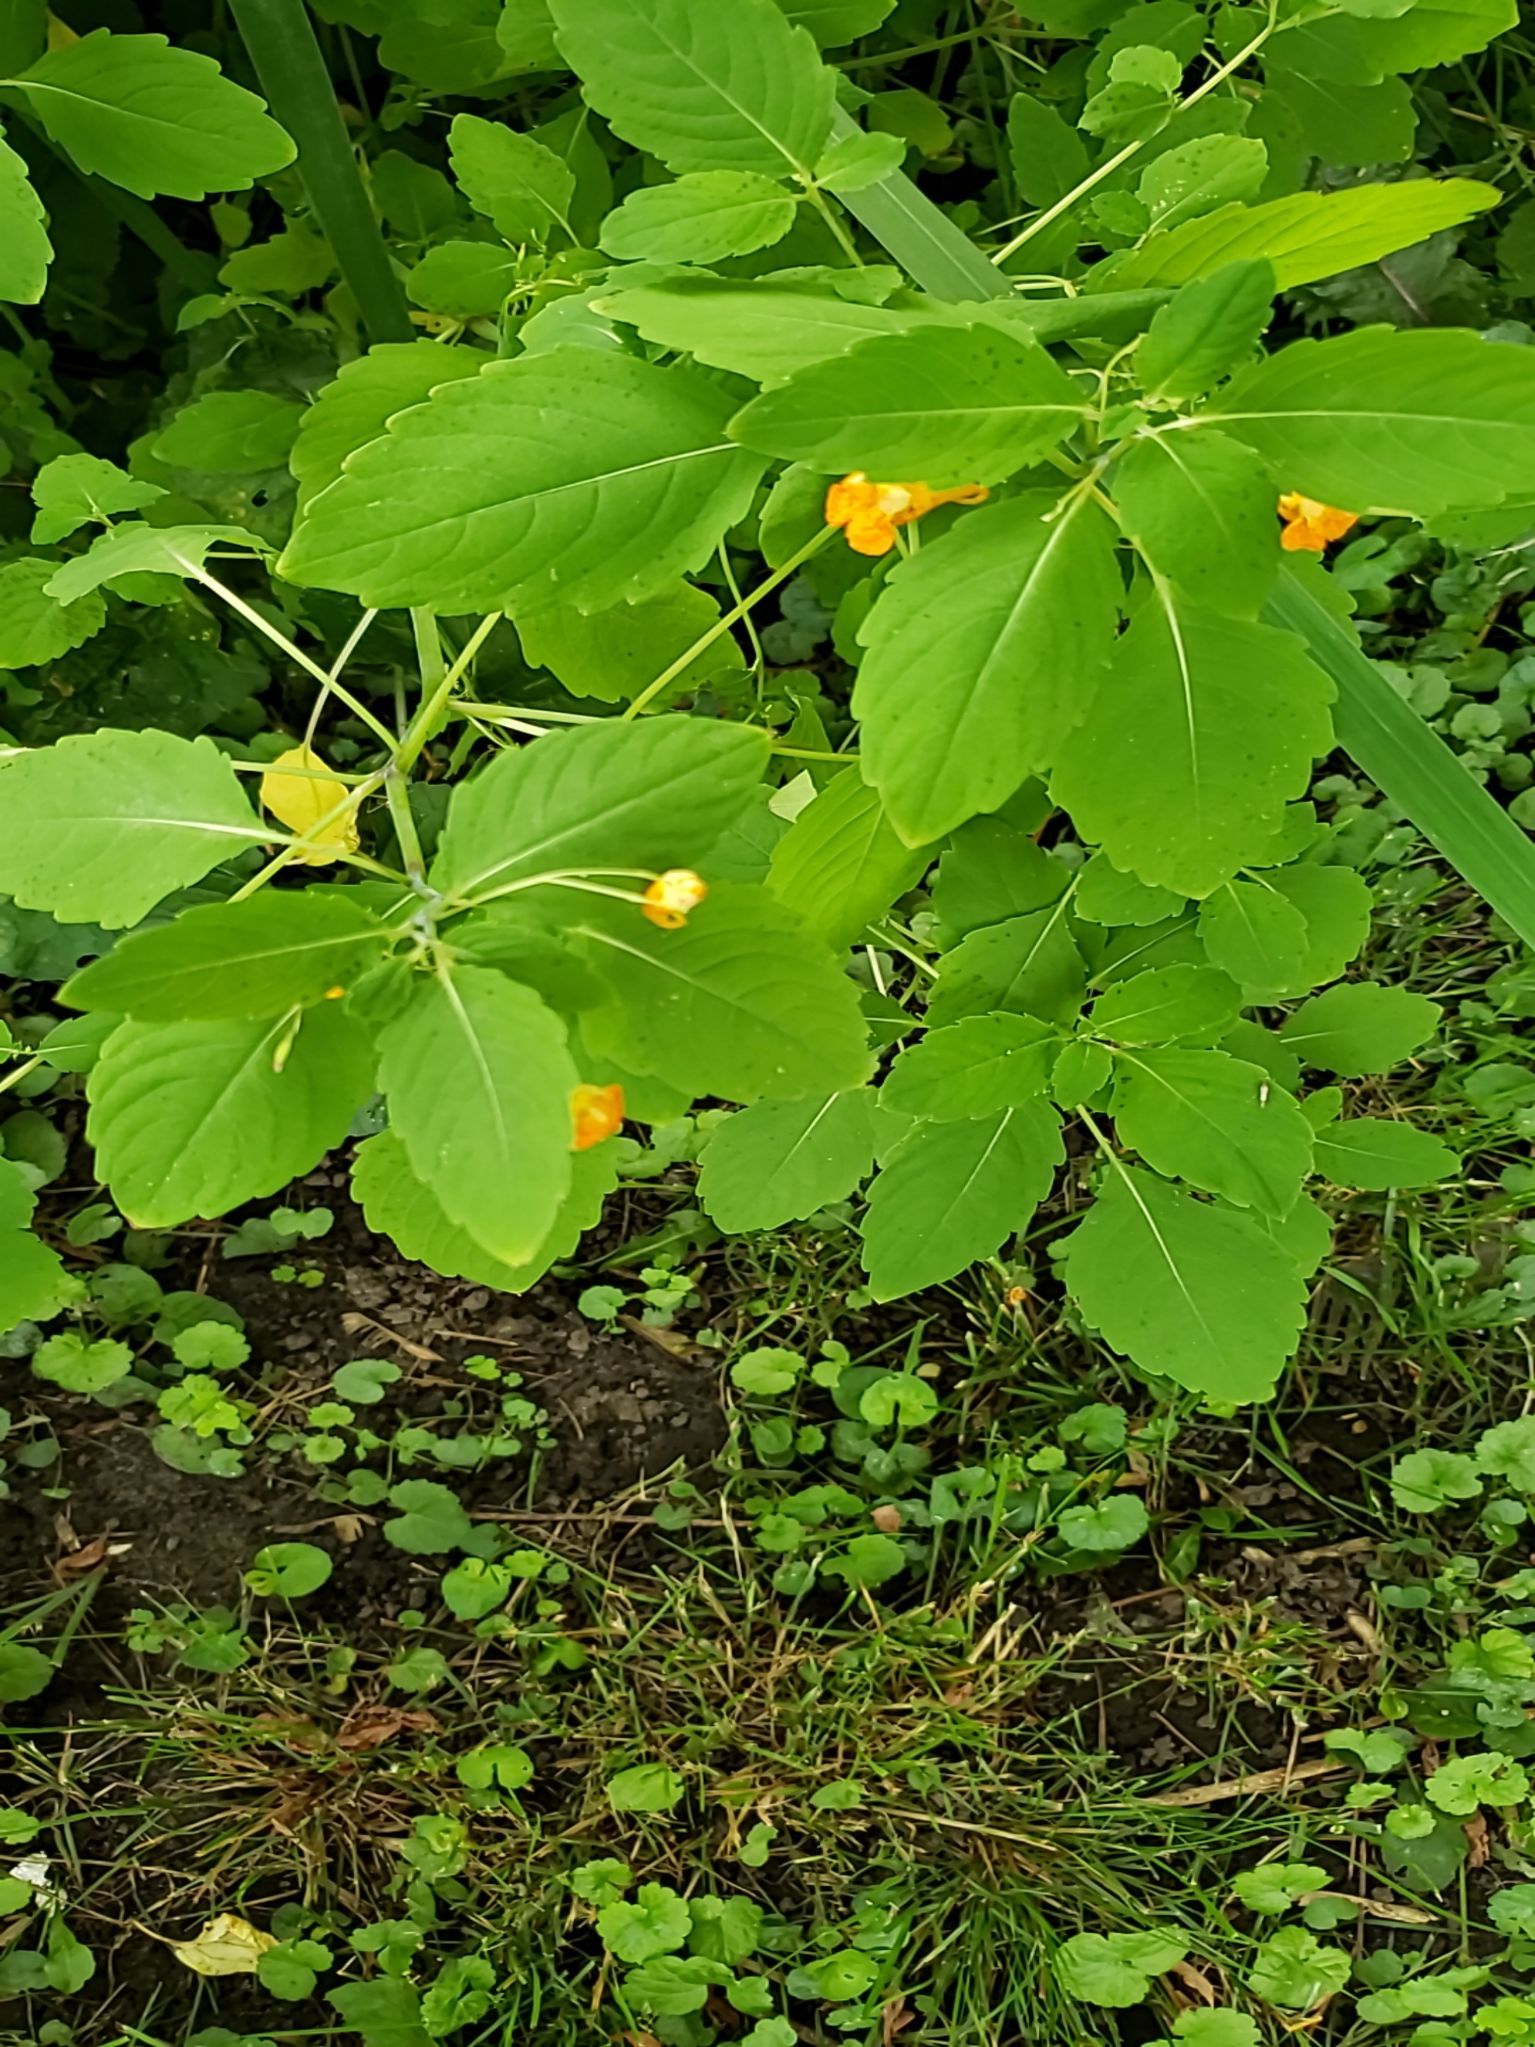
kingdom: Plantae
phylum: Tracheophyta
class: Magnoliopsida
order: Ericales
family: Balsaminaceae
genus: Impatiens
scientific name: Impatiens capensis
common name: Orange balsam
